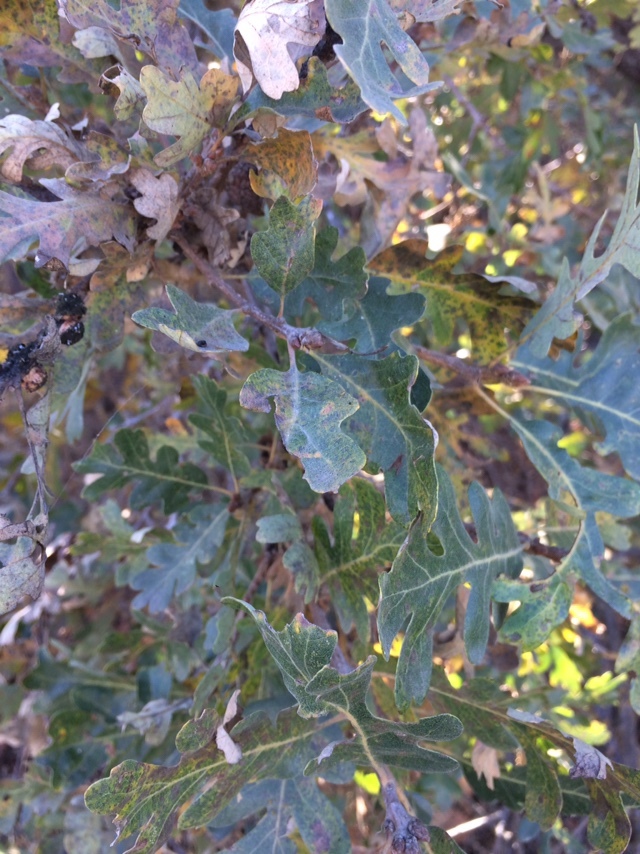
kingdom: Plantae
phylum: Tracheophyta
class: Magnoliopsida
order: Fagales
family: Fagaceae
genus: Quercus
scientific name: Quercus lobata
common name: Valley oak
